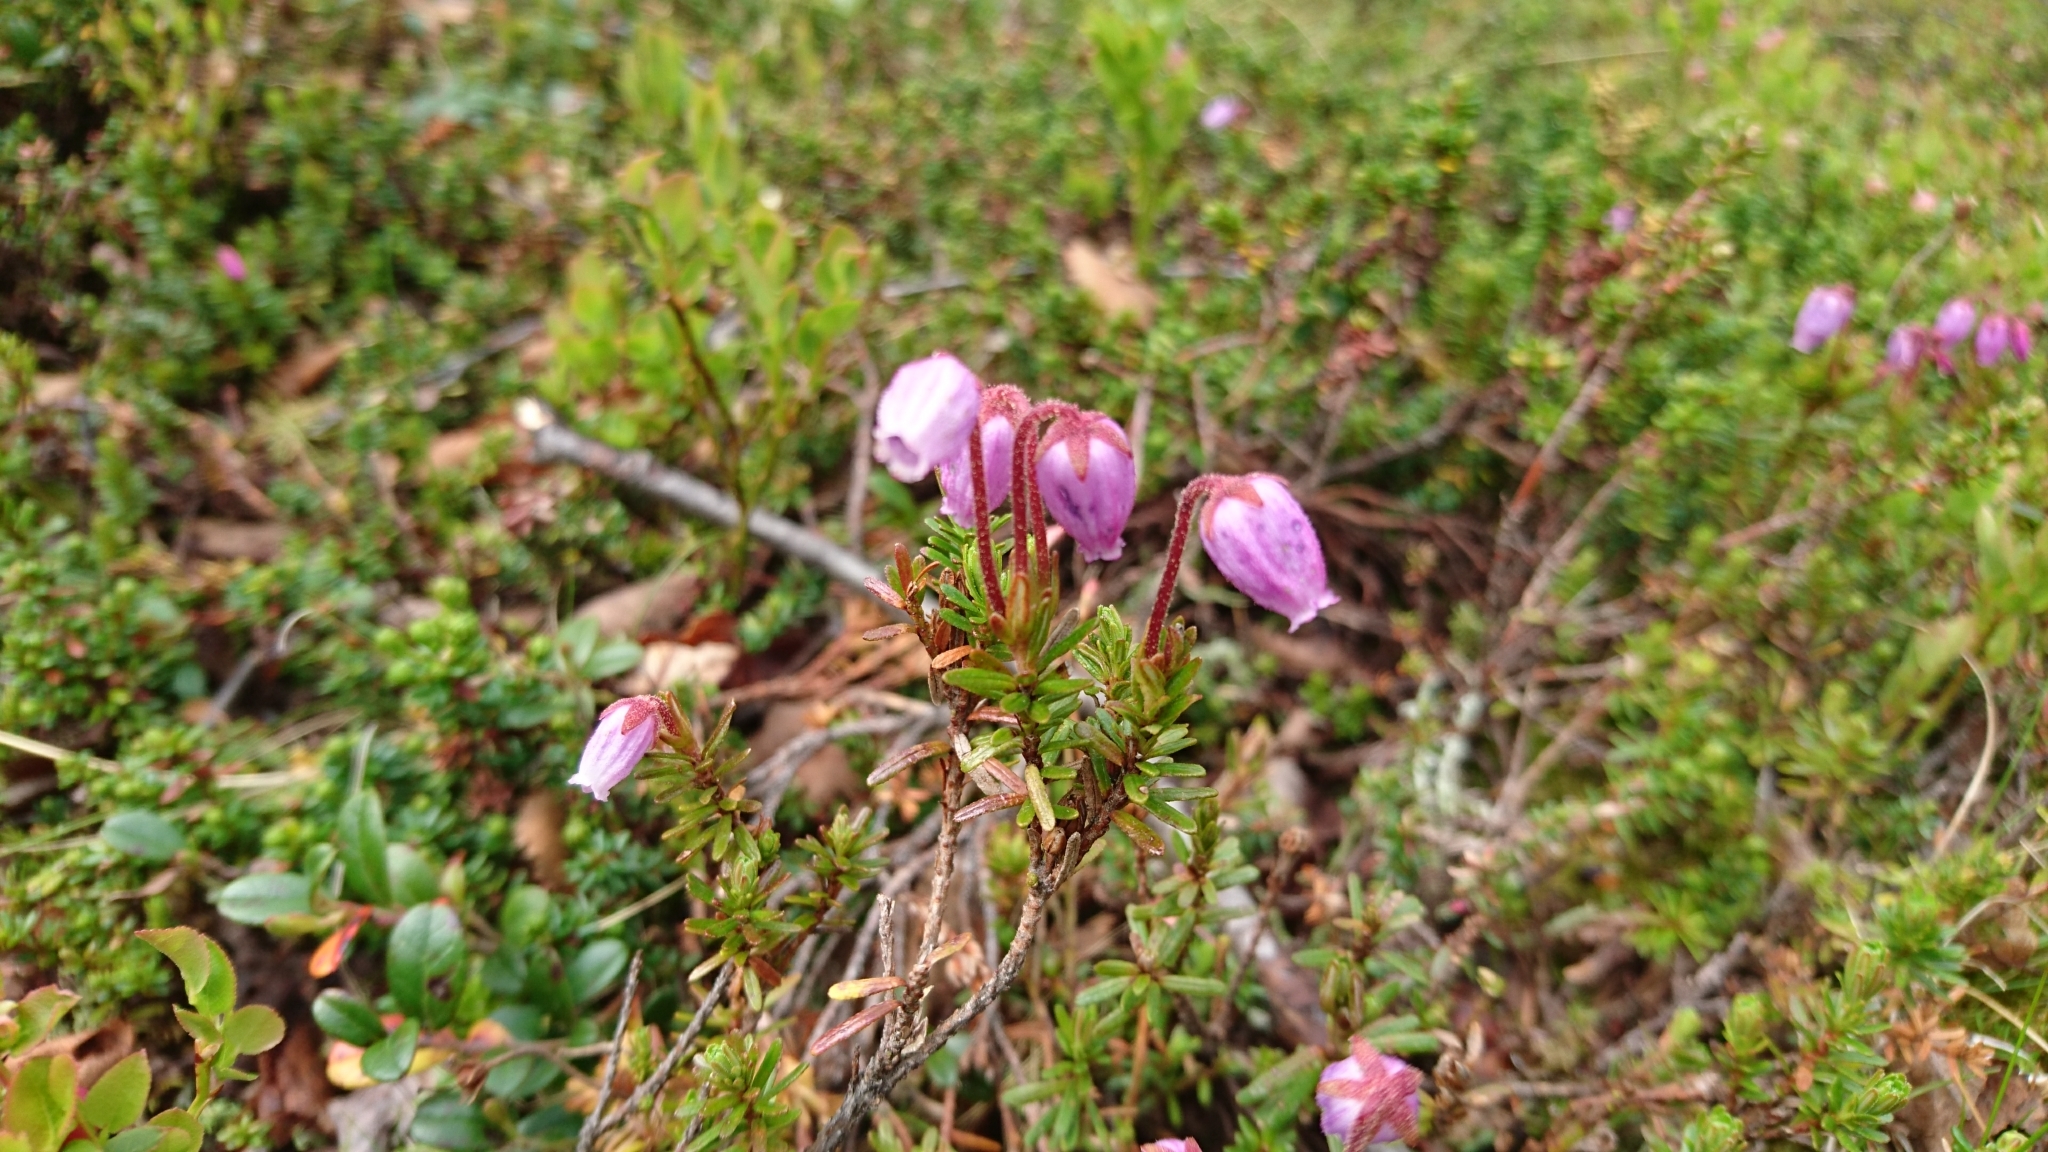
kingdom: Plantae
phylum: Tracheophyta
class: Magnoliopsida
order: Ericales
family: Ericaceae
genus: Phyllodoce
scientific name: Phyllodoce caerulea
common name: Blue heath
